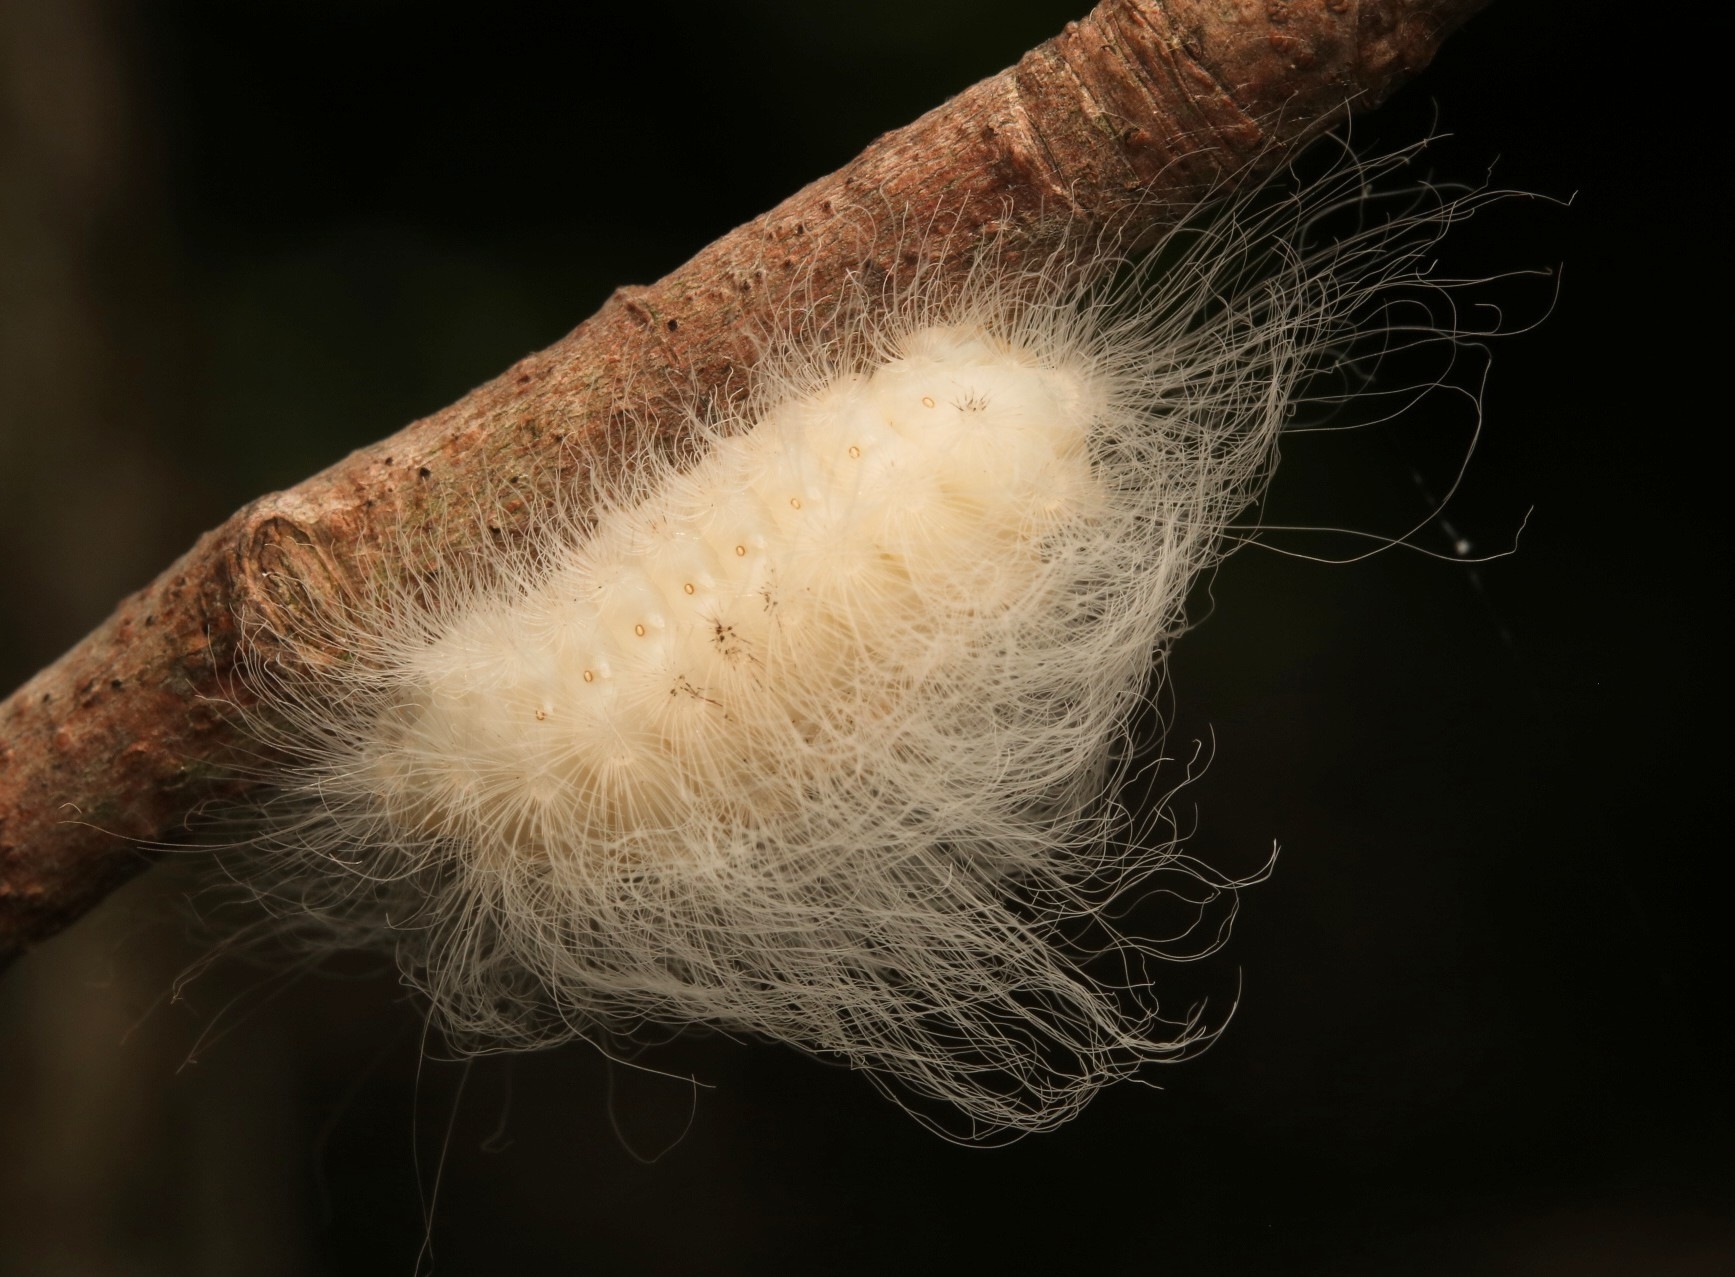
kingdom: Animalia
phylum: Arthropoda
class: Insecta
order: Lepidoptera
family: Megalopygidae
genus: Megalopyge
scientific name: Megalopyge crispata
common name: Black-waved flannel moth
